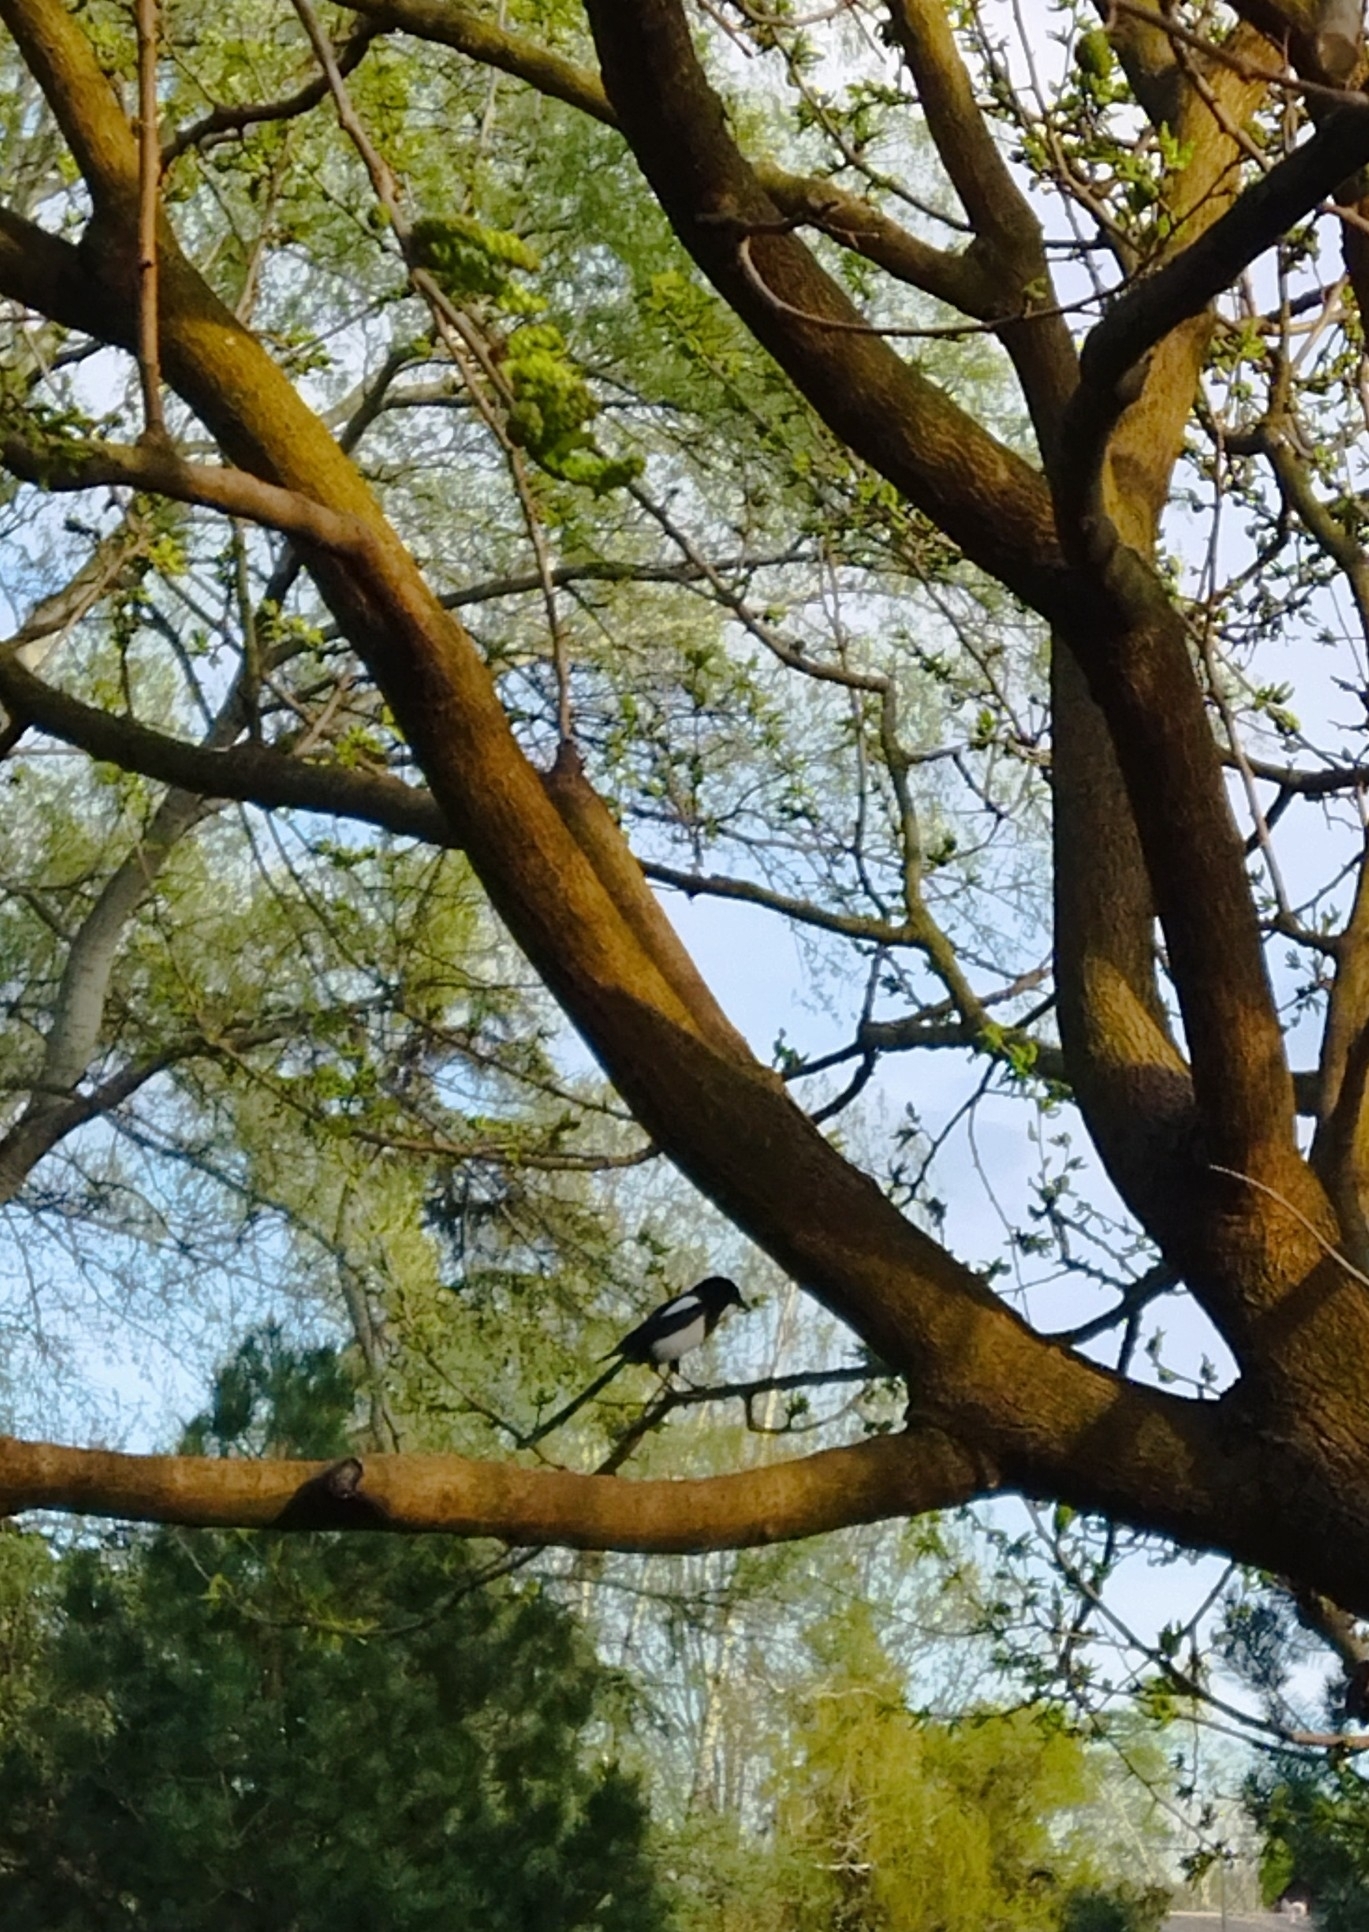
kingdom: Animalia
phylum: Chordata
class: Aves
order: Passeriformes
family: Corvidae
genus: Pica
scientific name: Pica pica
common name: Eurasian magpie
